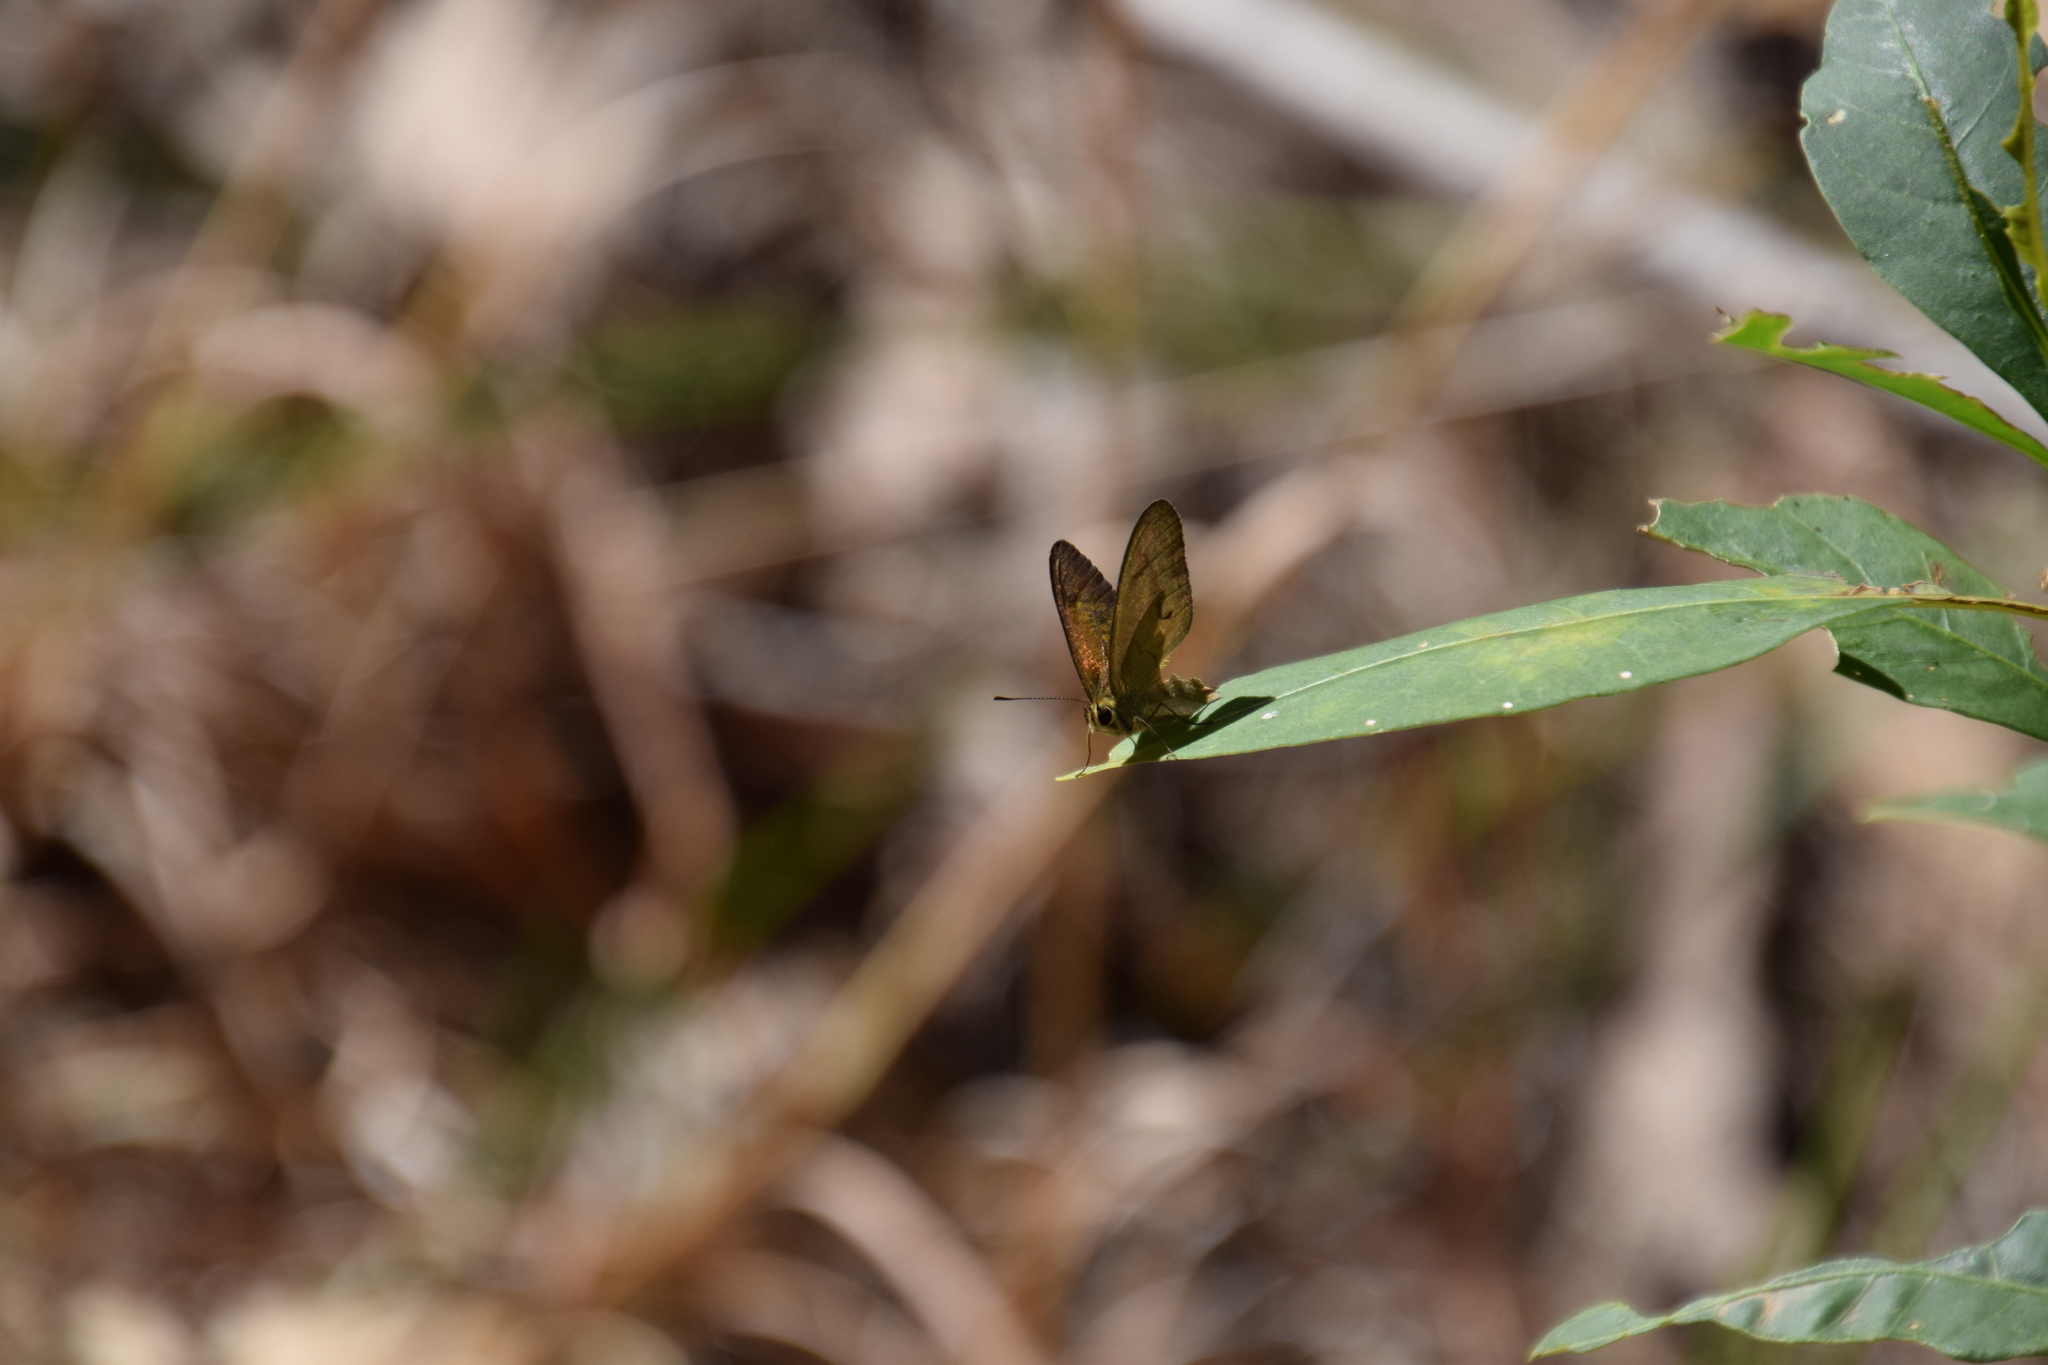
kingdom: Animalia
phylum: Arthropoda
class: Insecta
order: Lepidoptera
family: Nymphalidae
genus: Hypocysta
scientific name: Hypocysta metirius
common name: Brown ringlet
